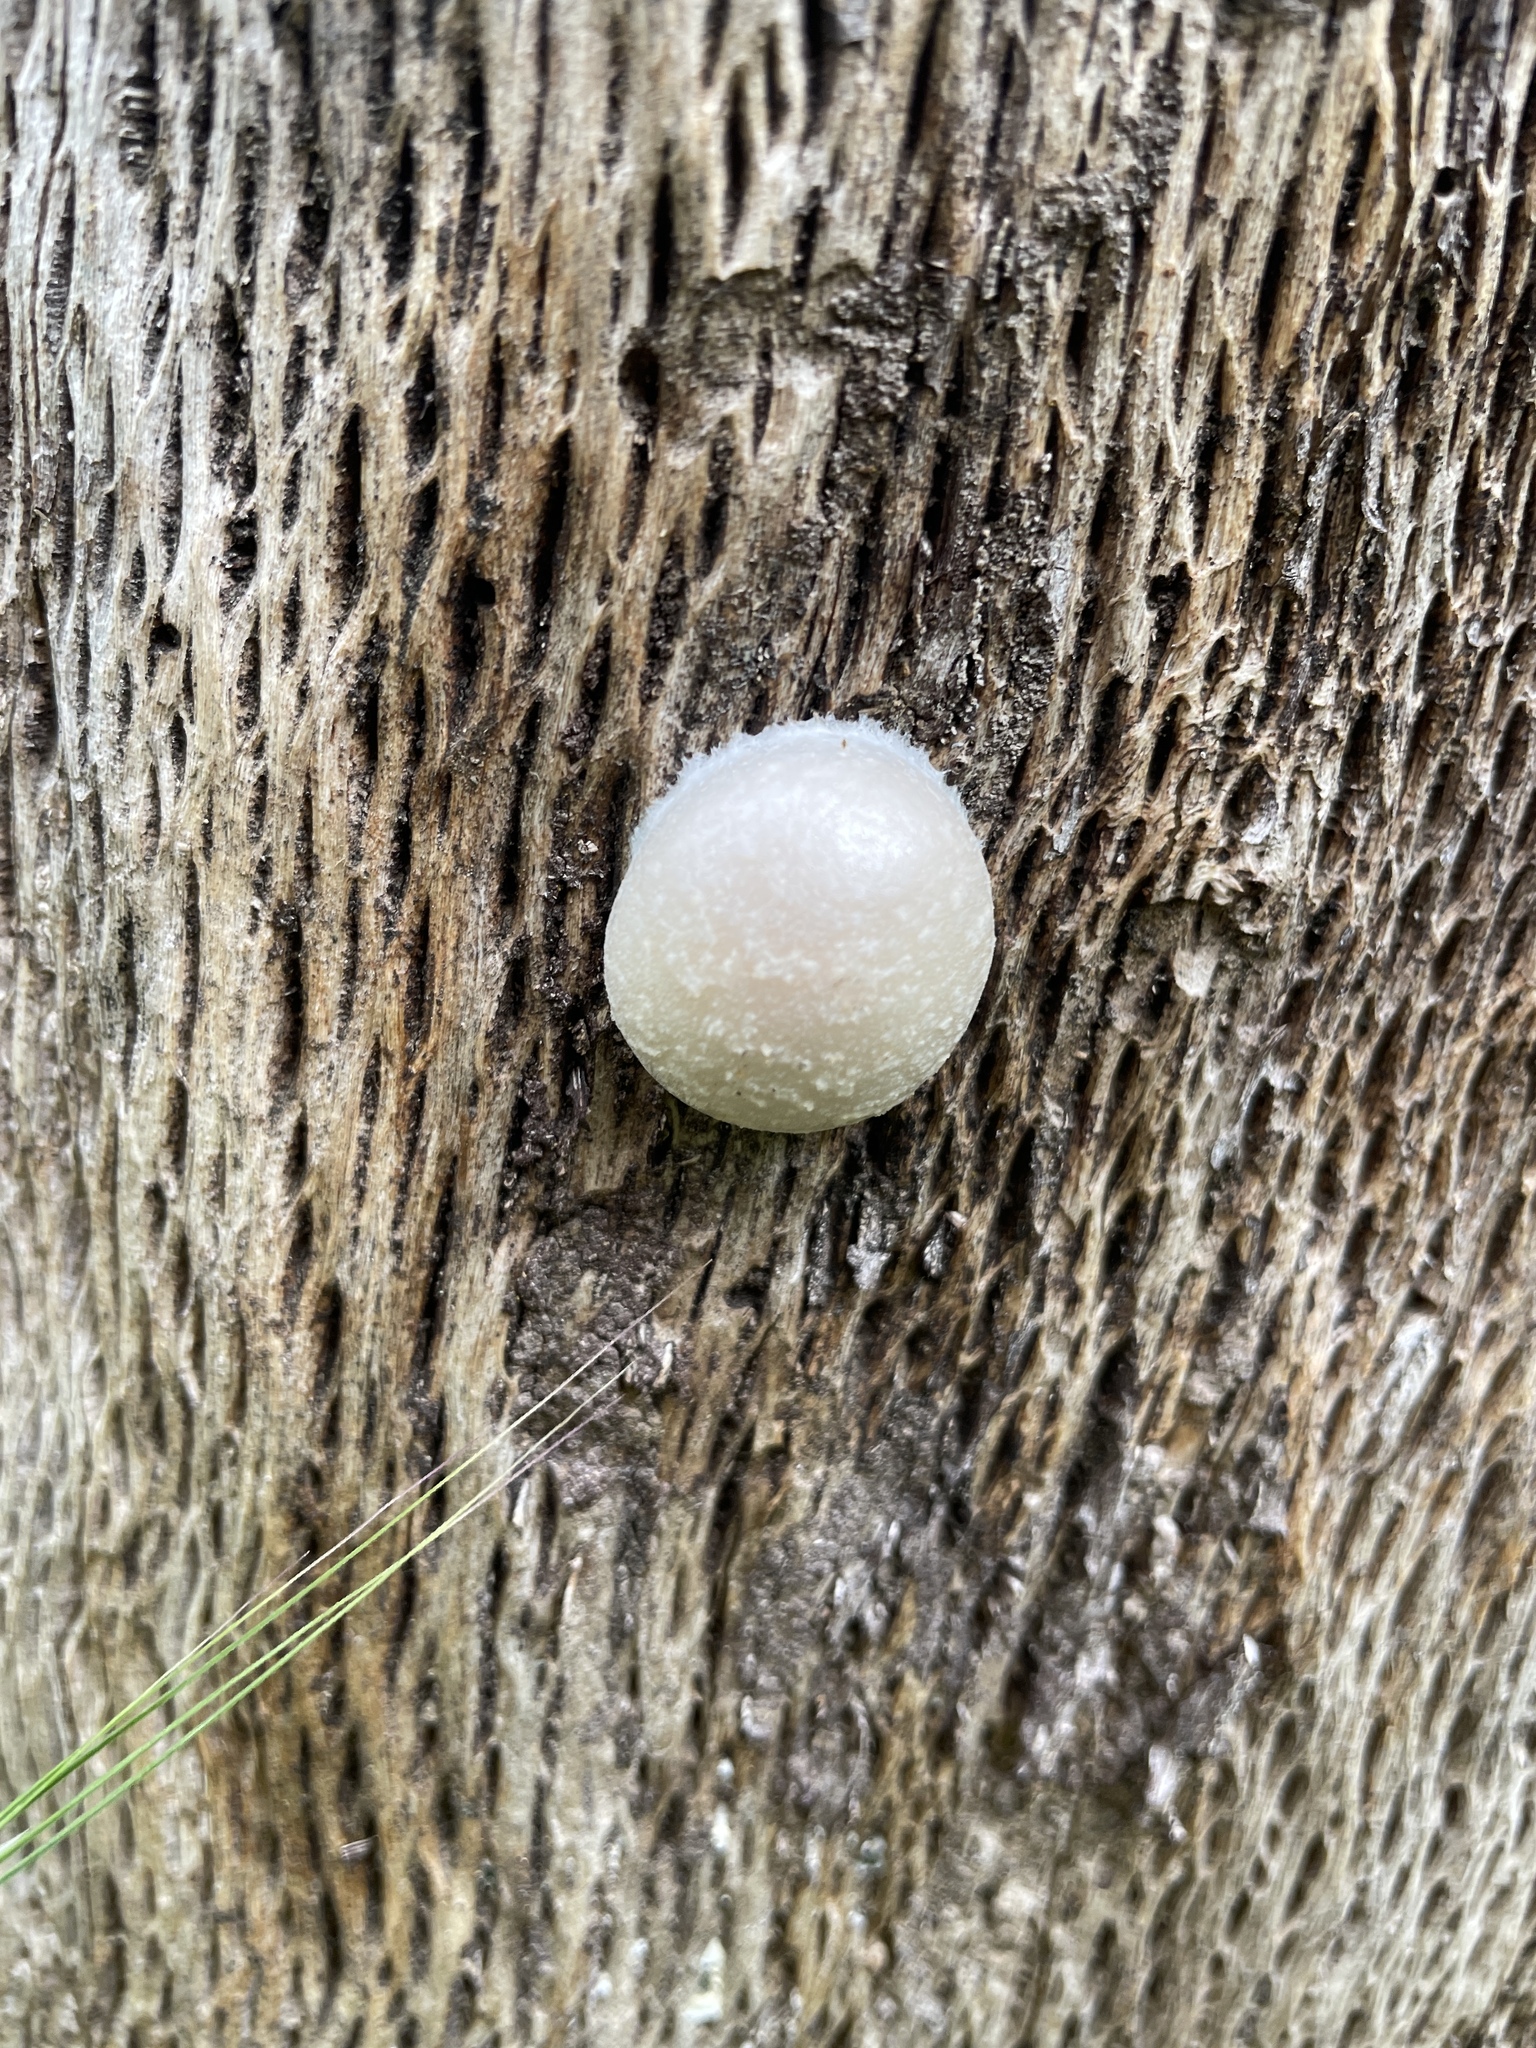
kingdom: Protozoa
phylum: Mycetozoa
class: Myxomycetes
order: Cribrariales
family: Tubiferaceae
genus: Reticularia
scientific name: Reticularia lycoperdon
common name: False puffball
